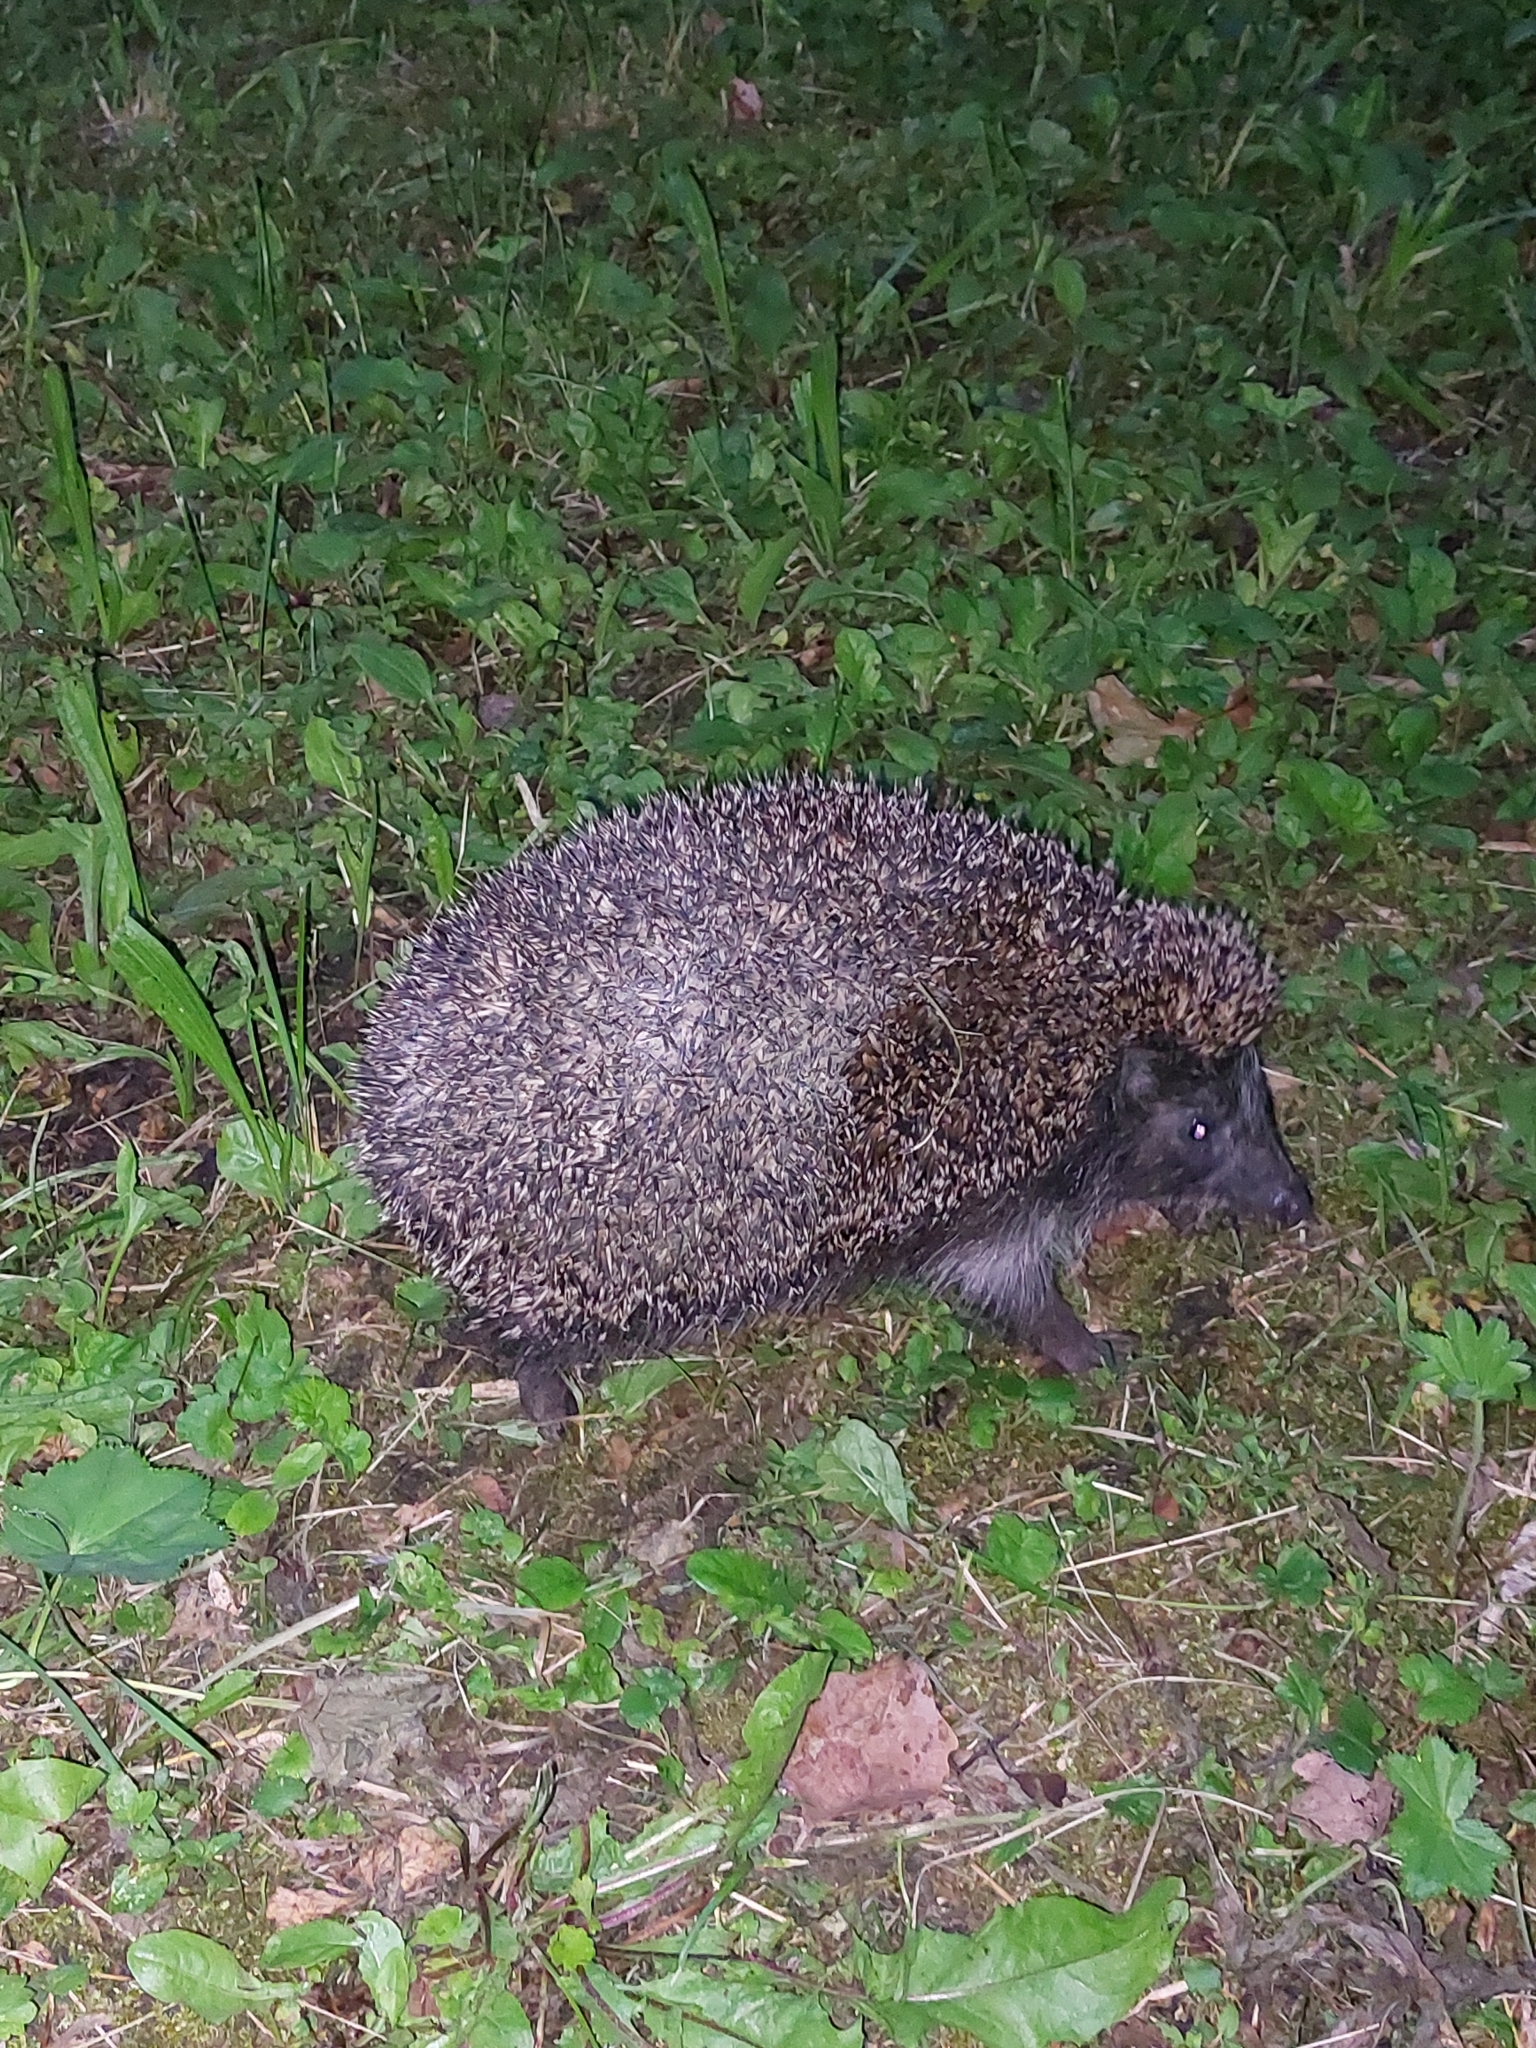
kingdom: Animalia
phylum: Chordata
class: Mammalia
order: Erinaceomorpha
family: Erinaceidae
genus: Erinaceus
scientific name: Erinaceus roumanicus
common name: Northern white-breasted hedgehog
